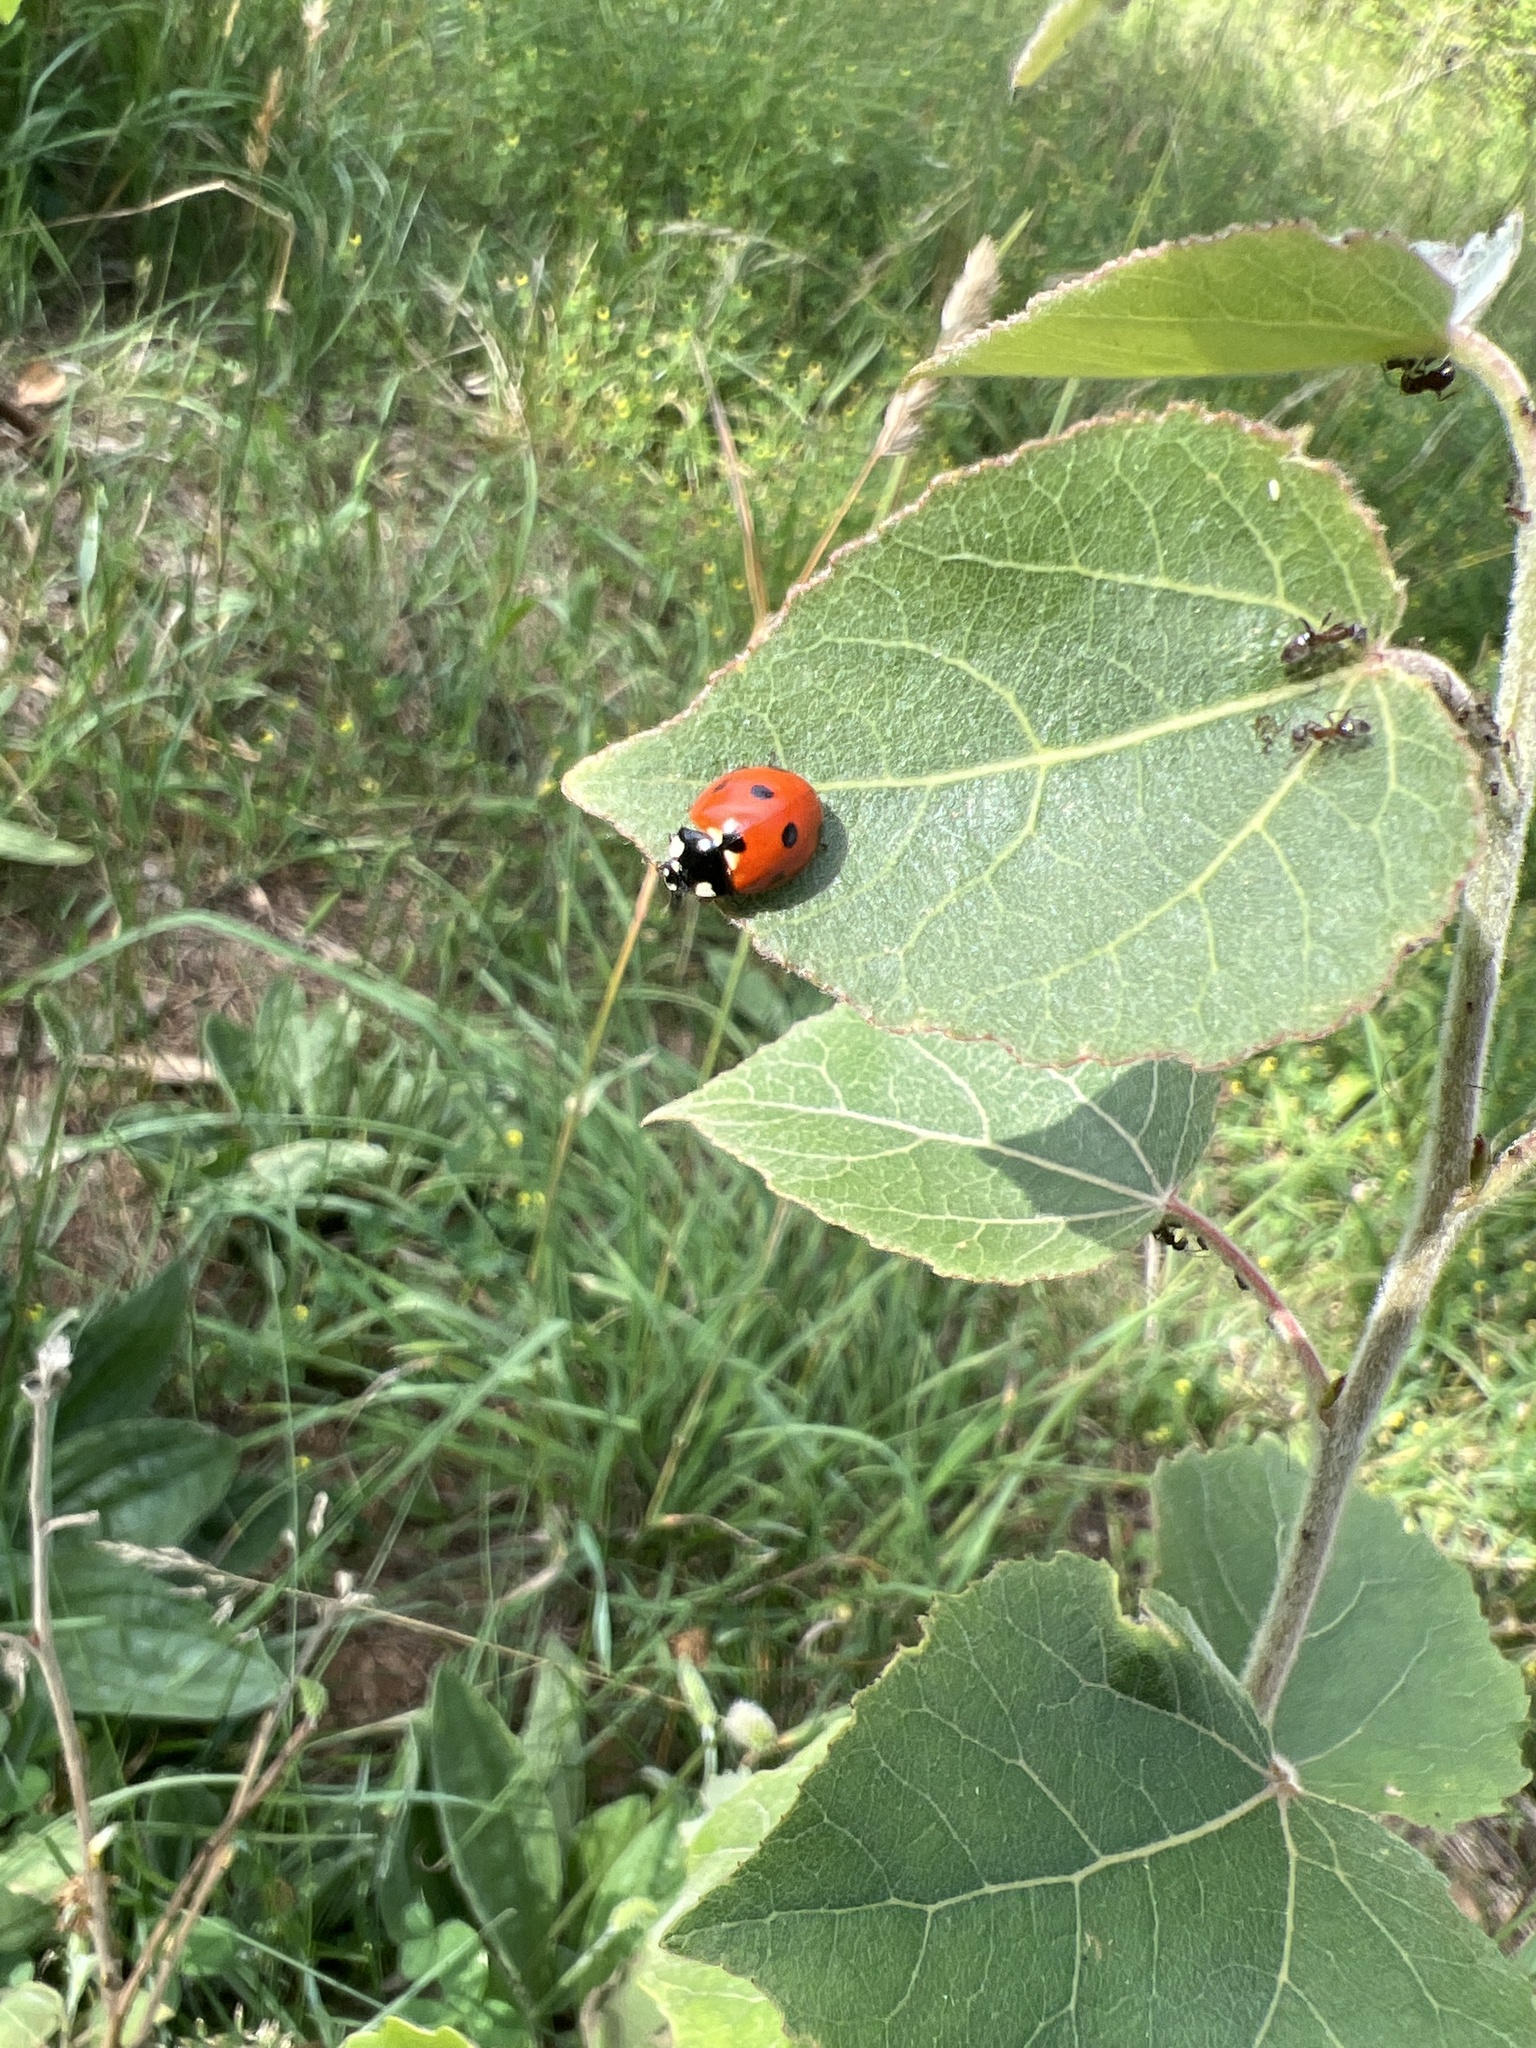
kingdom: Animalia
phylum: Arthropoda
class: Insecta
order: Coleoptera
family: Coccinellidae
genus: Coccinella
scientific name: Coccinella septempunctata
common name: Sevenspotted lady beetle
